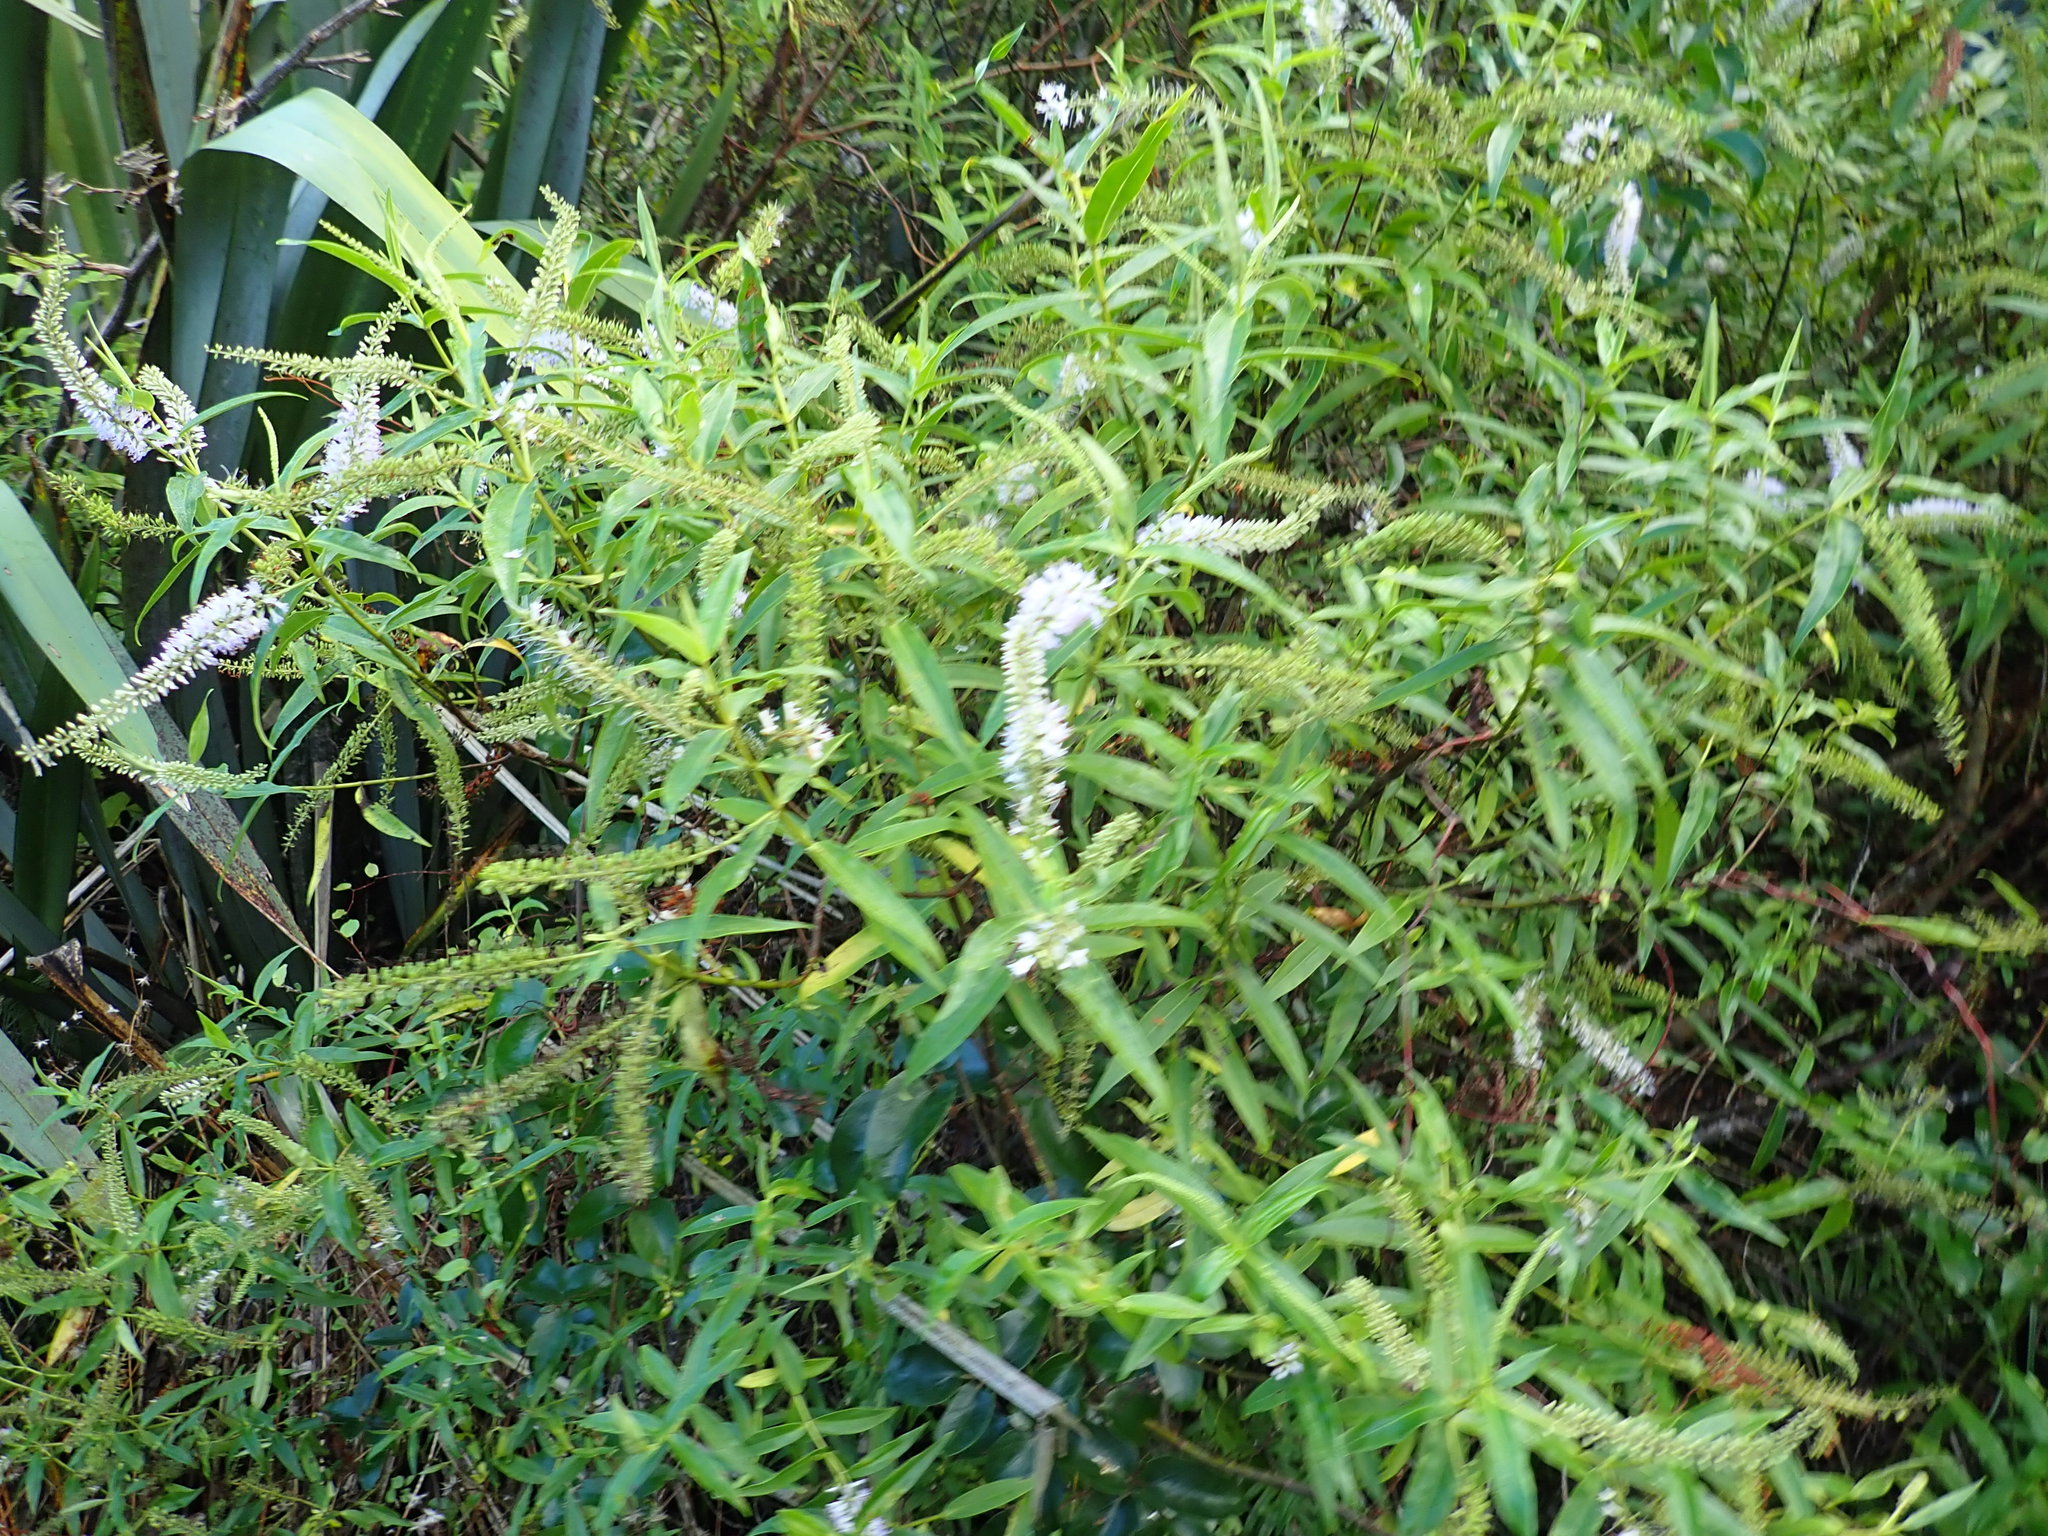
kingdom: Plantae
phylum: Tracheophyta
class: Magnoliopsida
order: Lamiales
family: Plantaginaceae
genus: Veronica
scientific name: Veronica stricta
